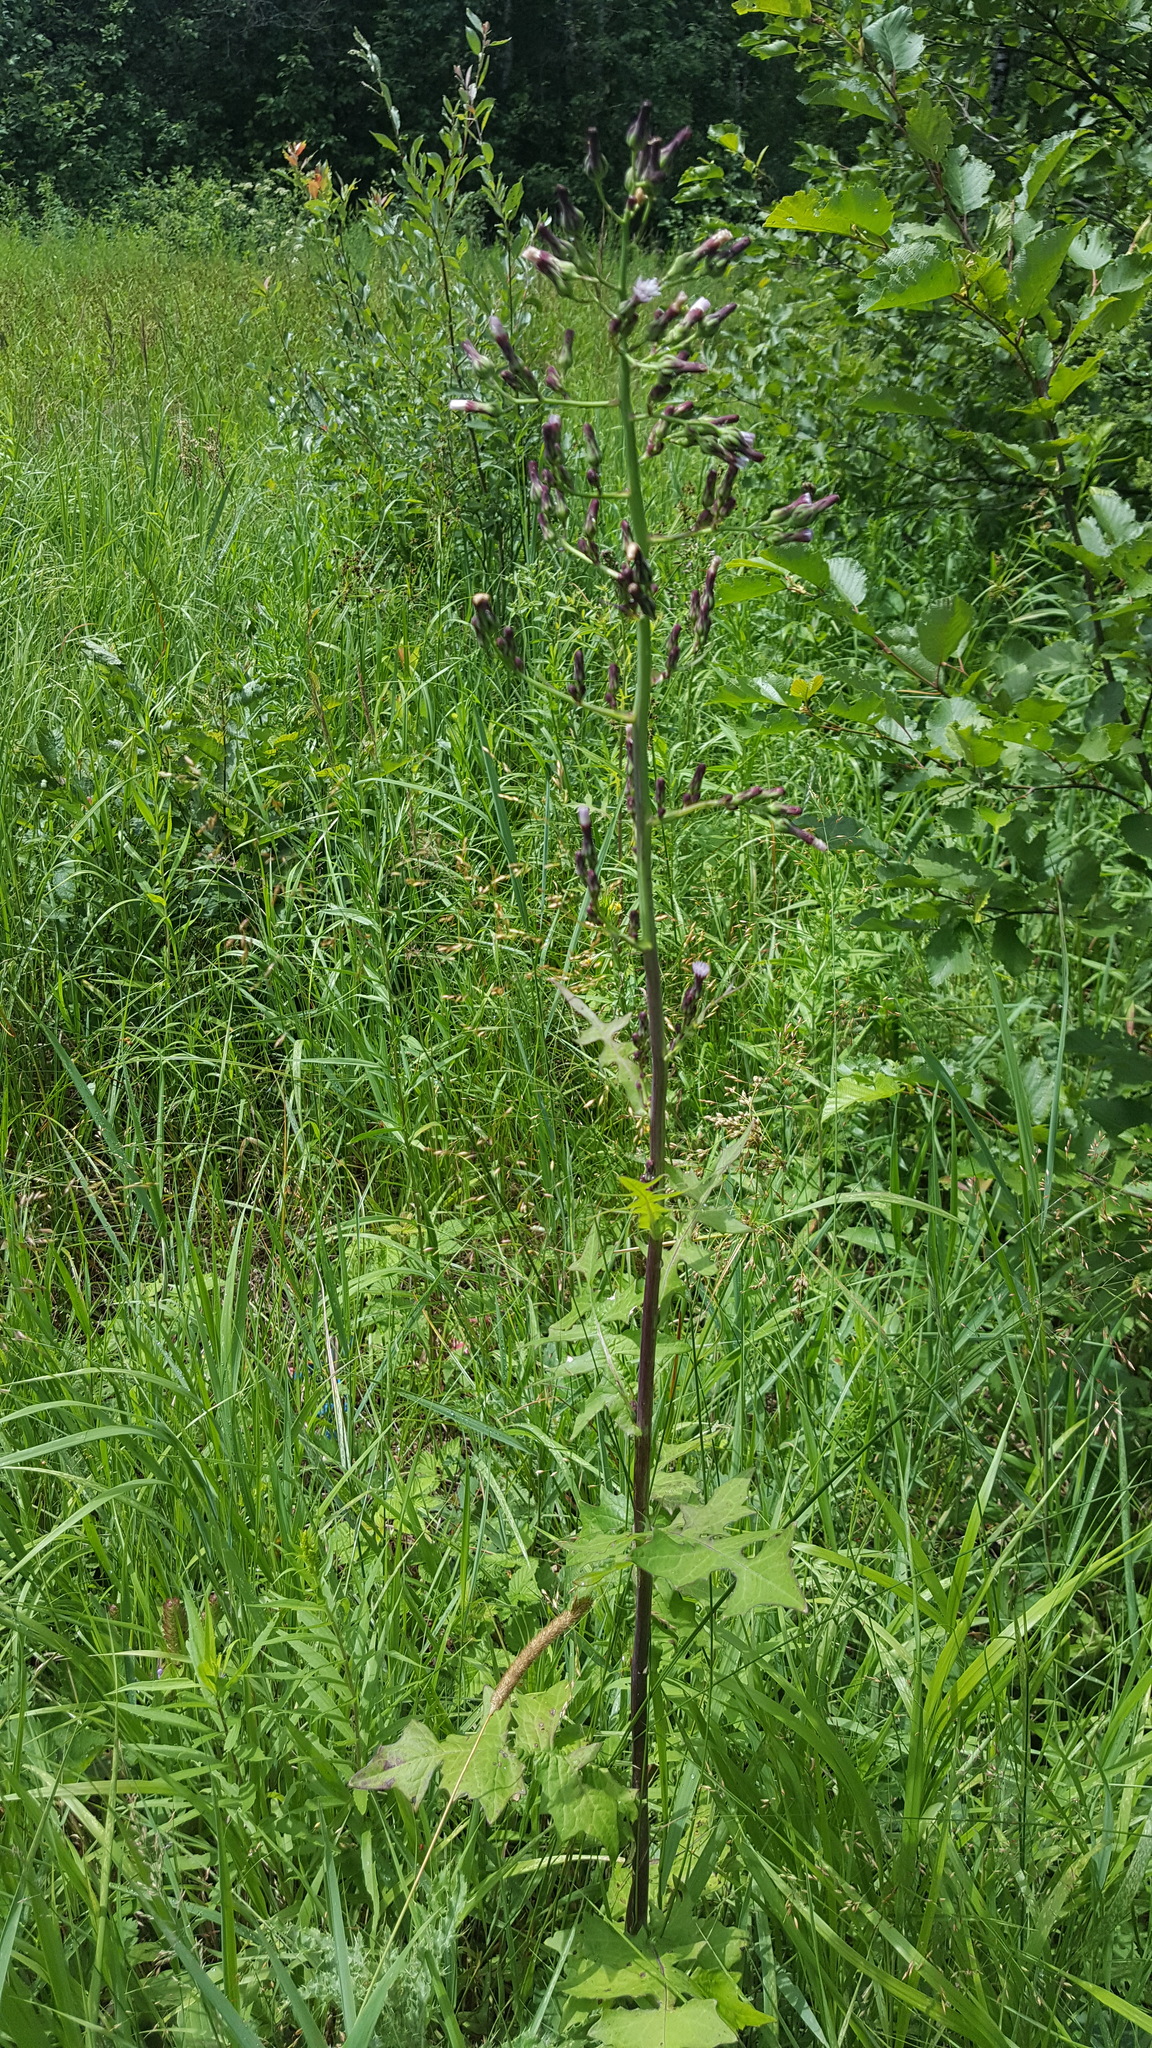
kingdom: Plantae
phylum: Tracheophyta
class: Magnoliopsida
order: Asterales
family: Asteraceae
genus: Lactuca
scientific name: Lactuca biennis
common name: Blue wood lettuce
